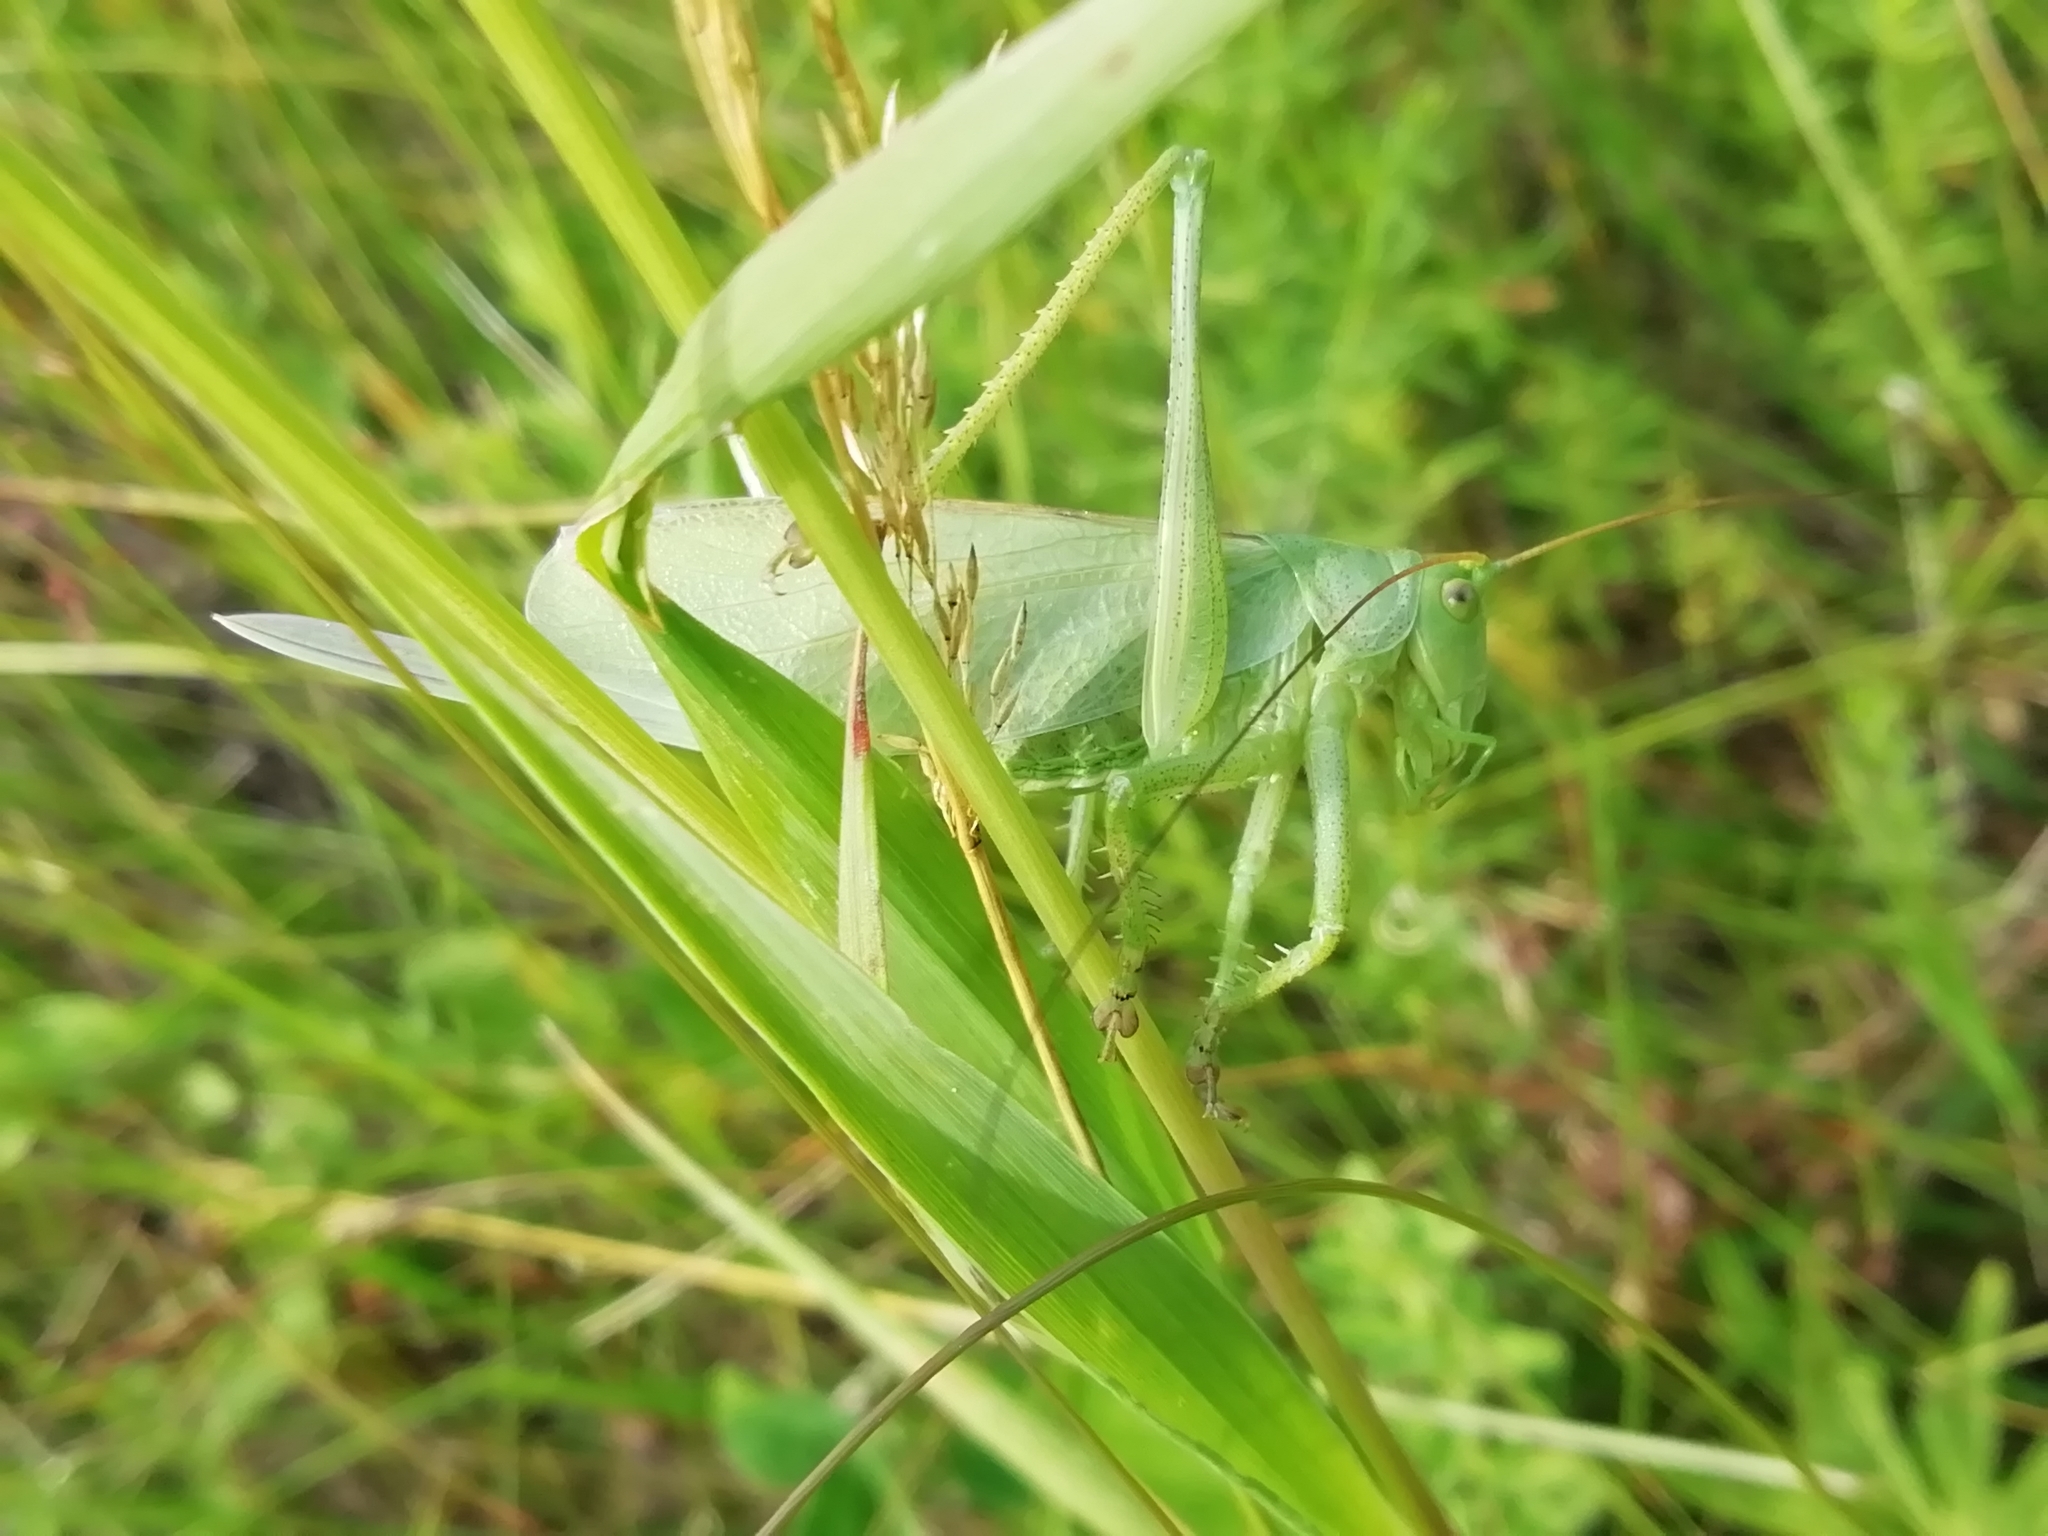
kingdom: Animalia
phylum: Arthropoda
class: Insecta
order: Orthoptera
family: Tettigoniidae
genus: Tettigonia
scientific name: Tettigonia cantans
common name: Upland green bush-cricket
